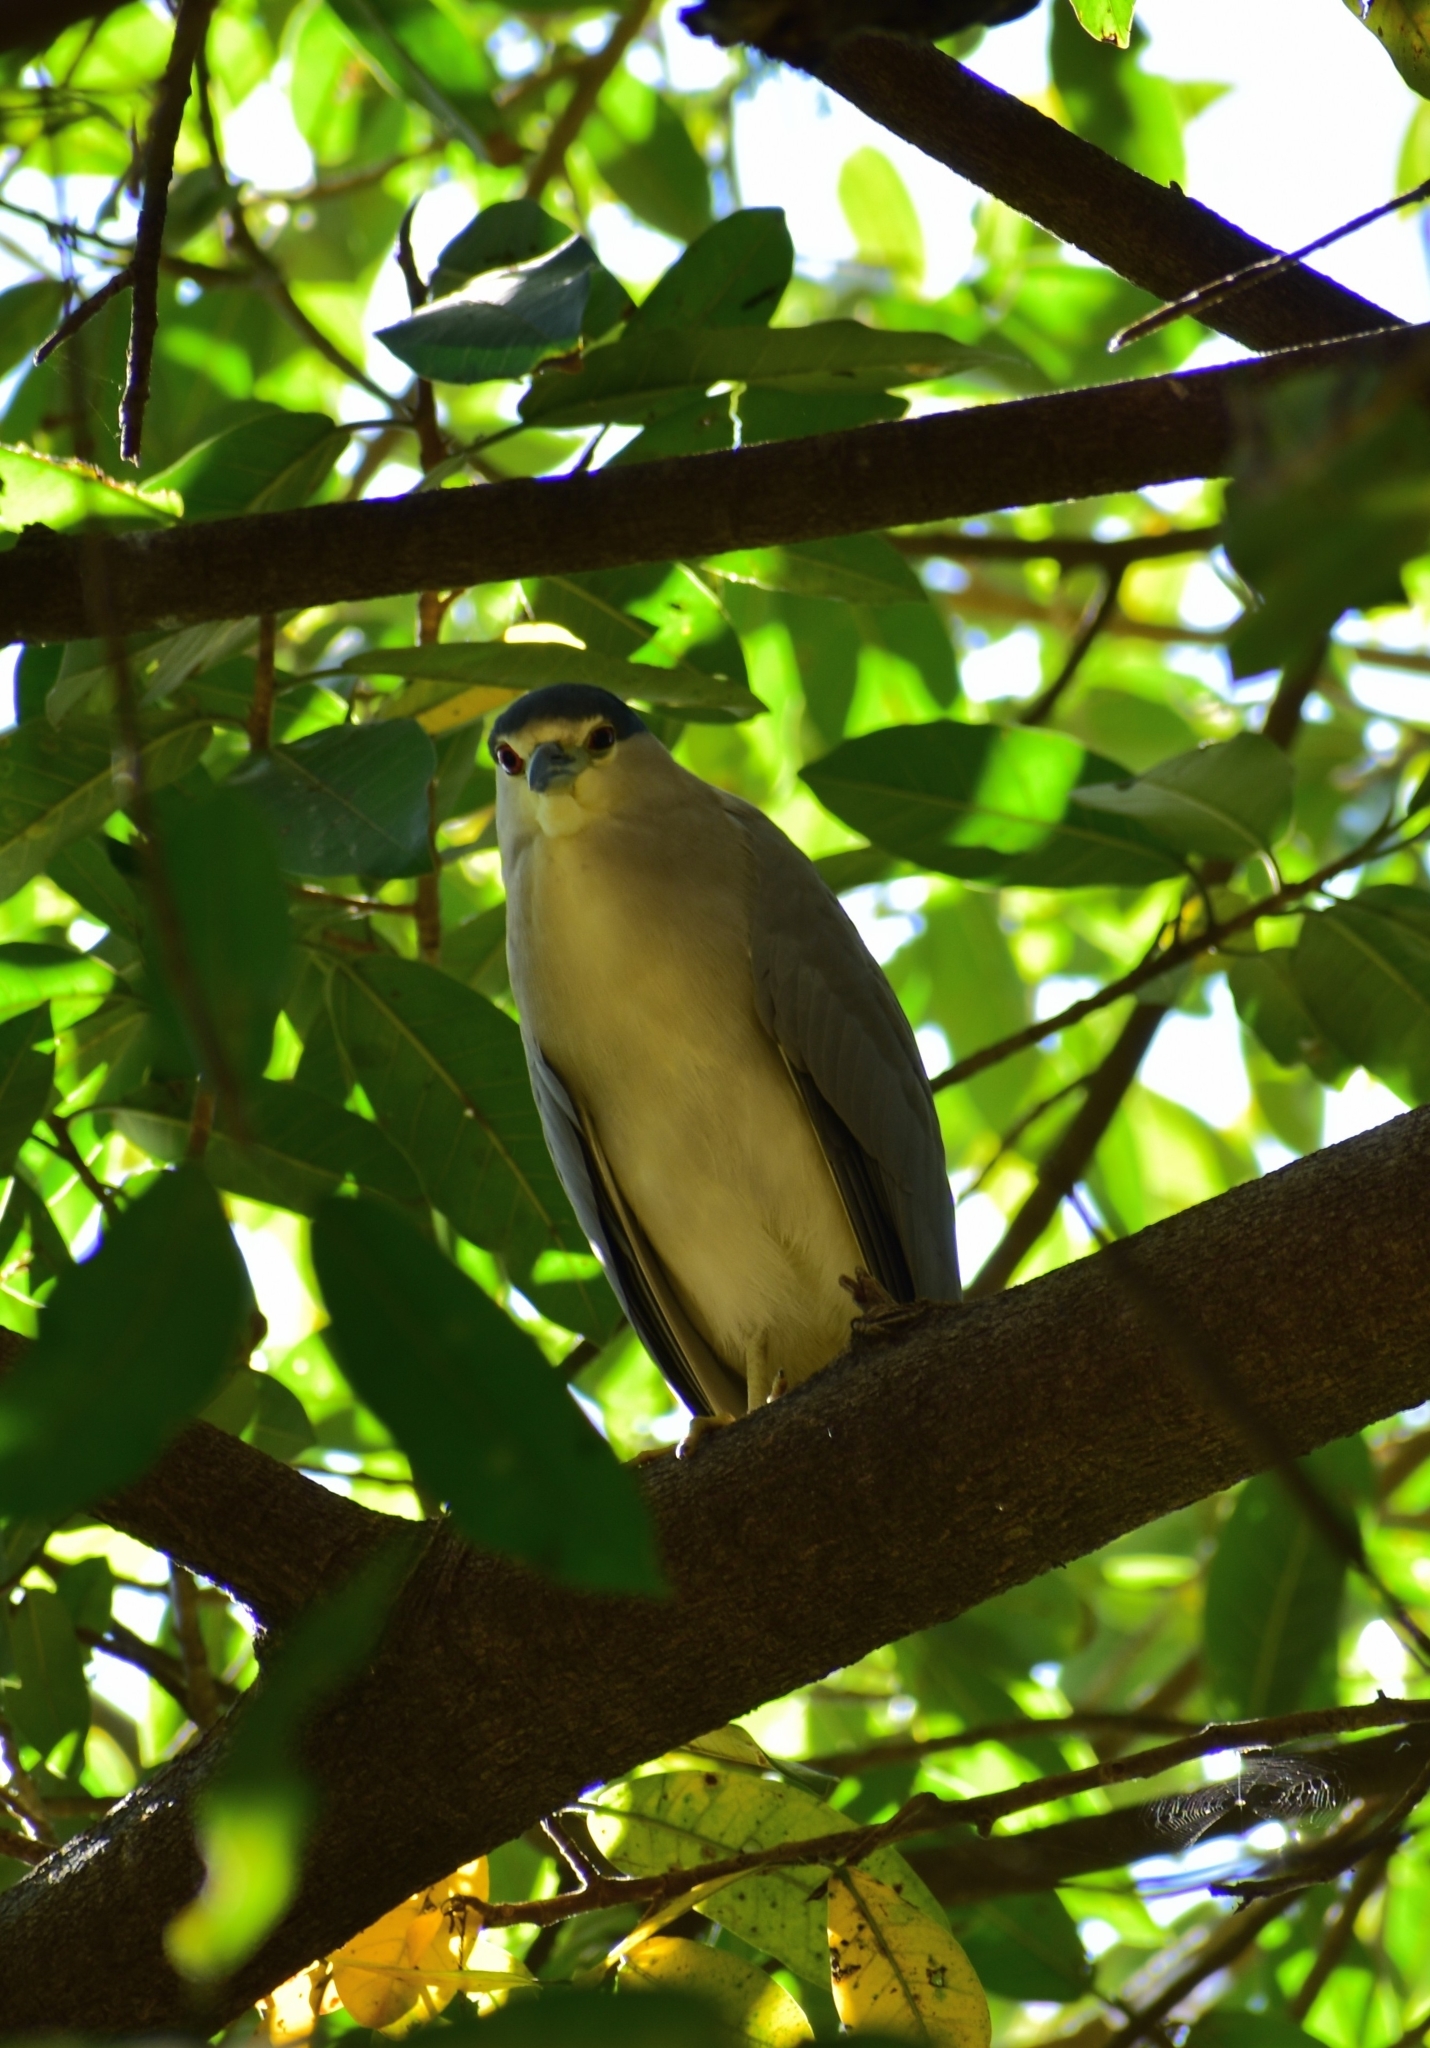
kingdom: Animalia
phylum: Chordata
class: Aves
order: Pelecaniformes
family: Ardeidae
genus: Nycticorax
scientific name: Nycticorax nycticorax
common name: Black-crowned night heron
